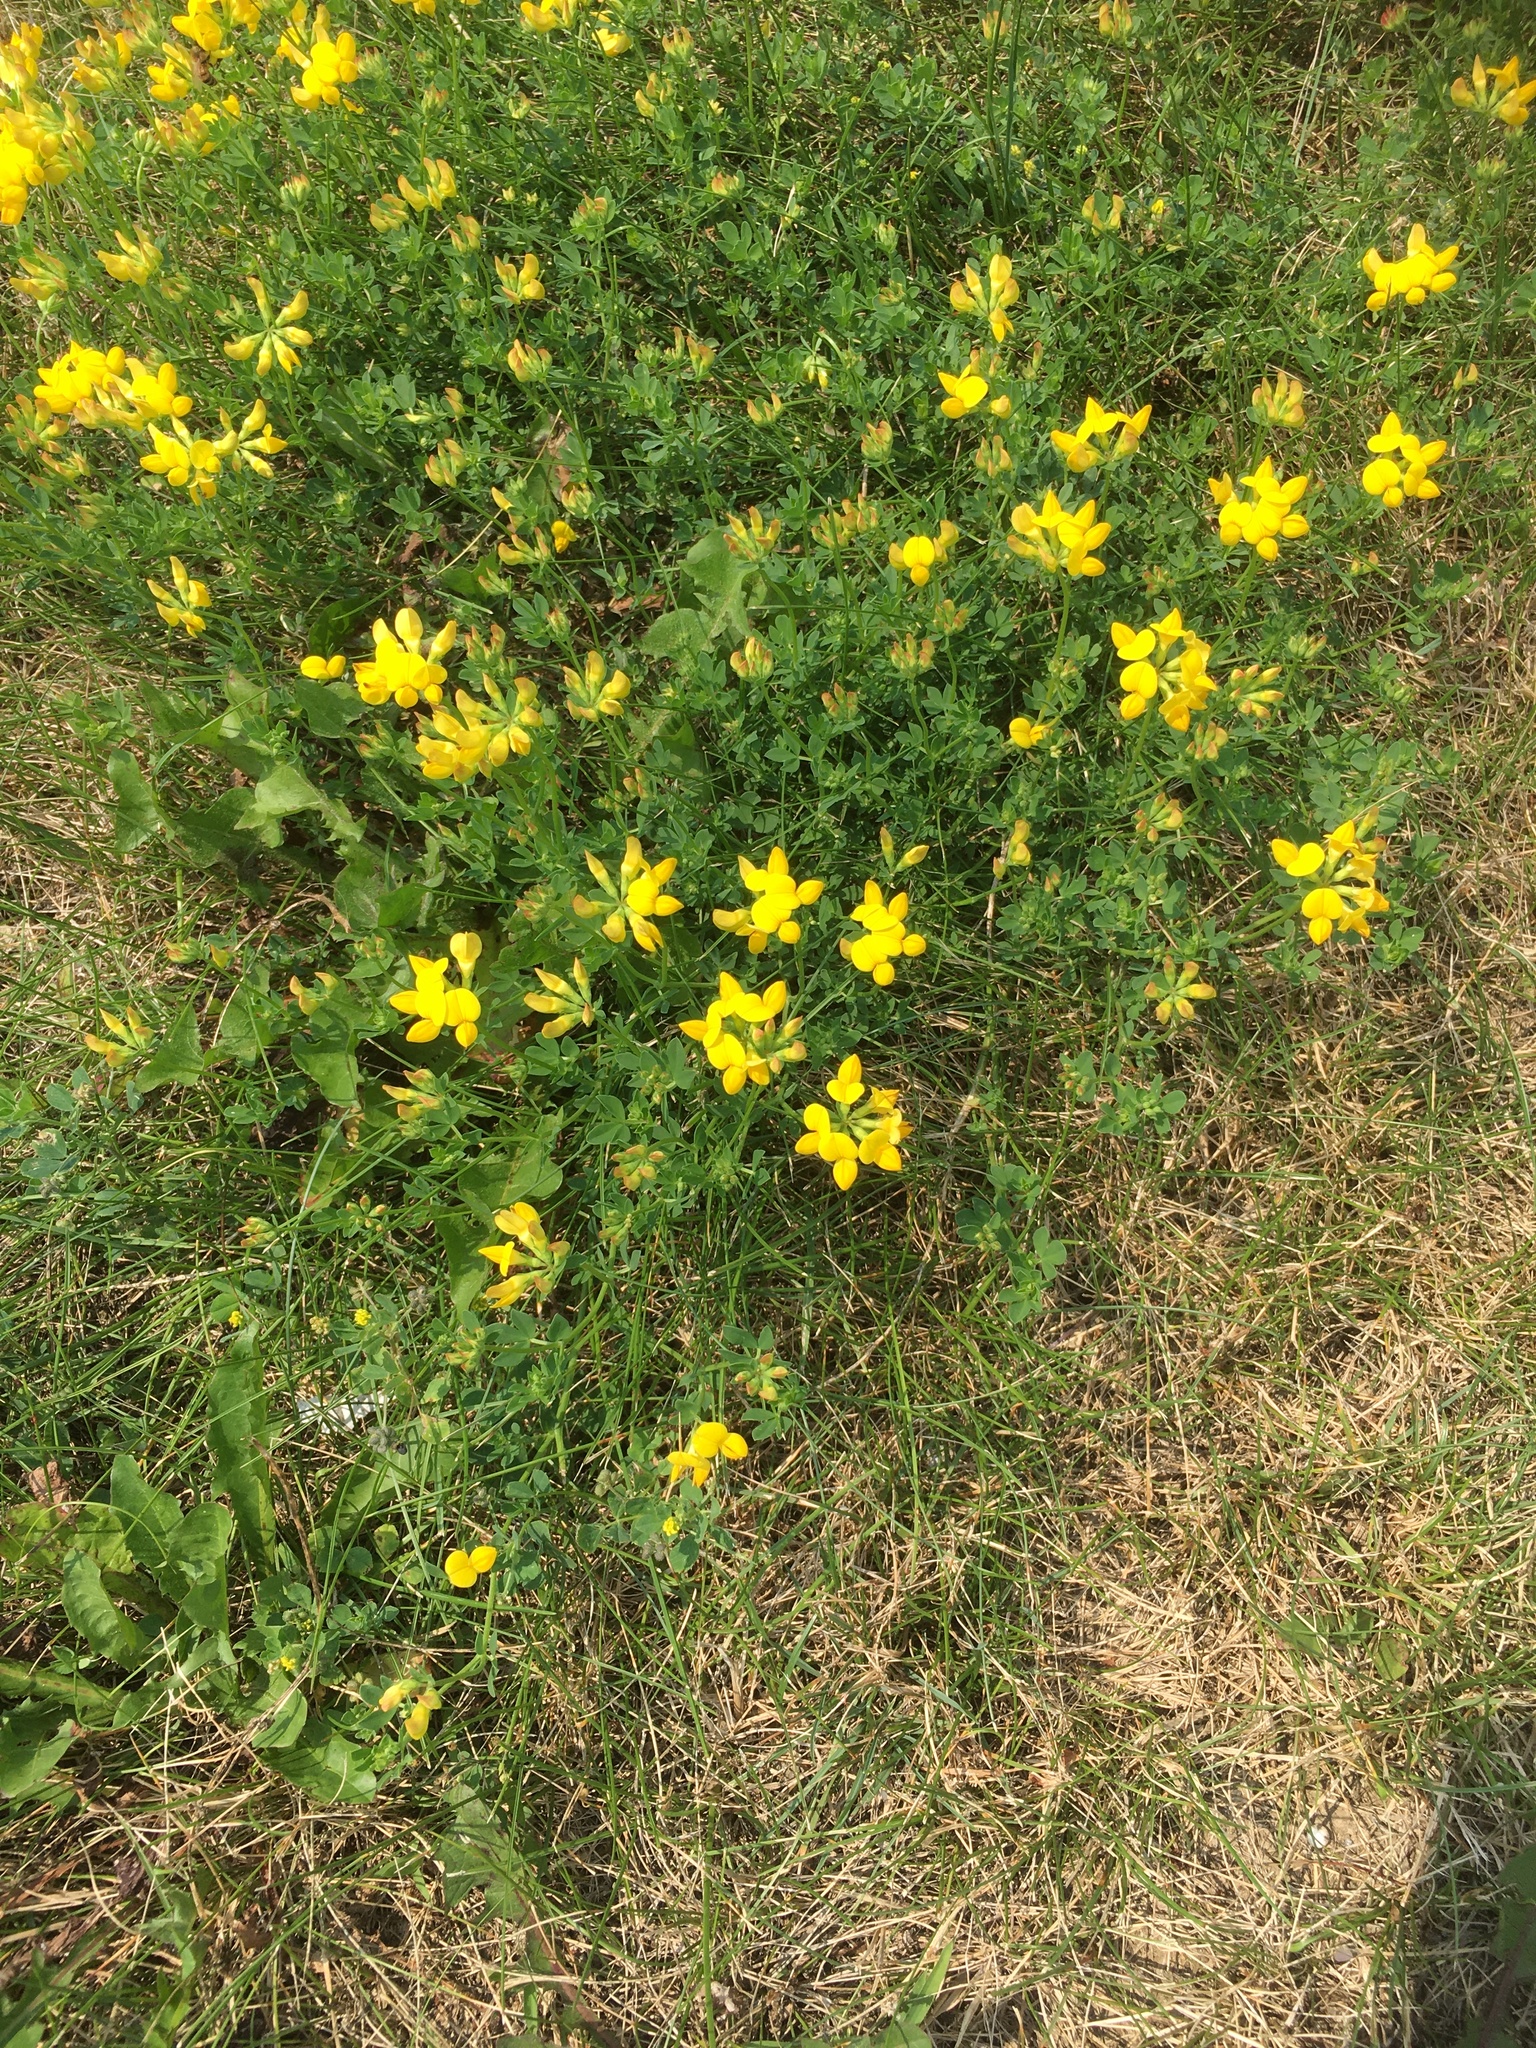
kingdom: Plantae
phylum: Tracheophyta
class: Magnoliopsida
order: Fabales
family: Fabaceae
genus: Lotus
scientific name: Lotus corniculatus
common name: Common bird's-foot-trefoil
